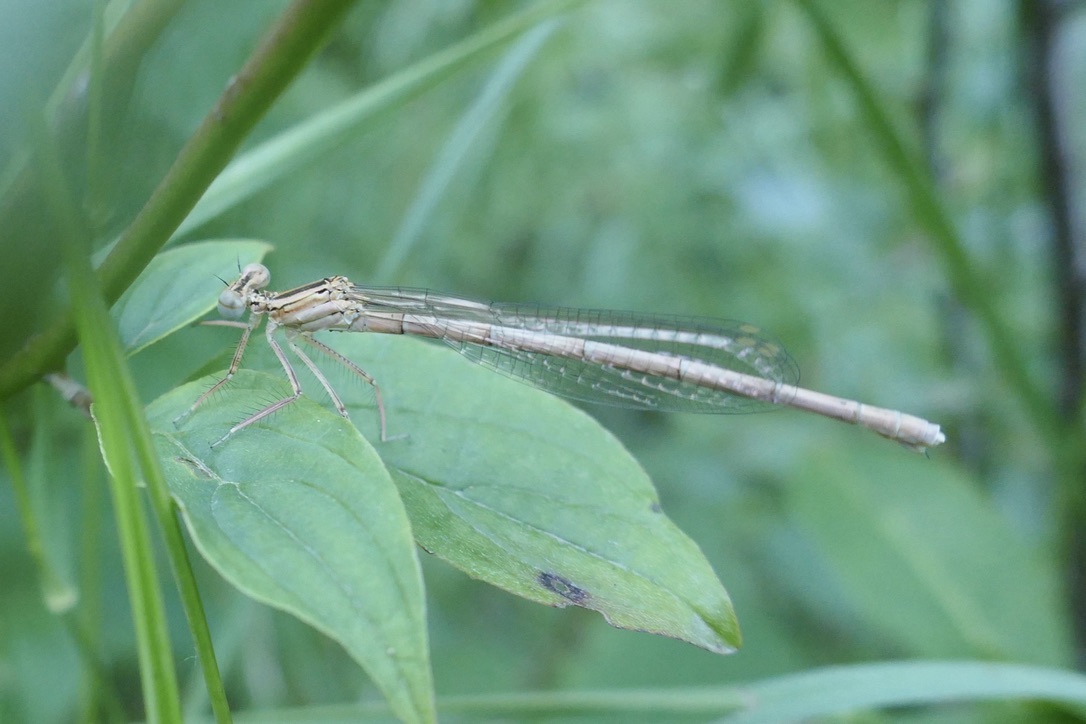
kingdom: Animalia
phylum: Arthropoda
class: Insecta
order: Odonata
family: Platycnemididae
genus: Platycnemis
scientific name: Platycnemis pennipes
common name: White-legged damselfly
